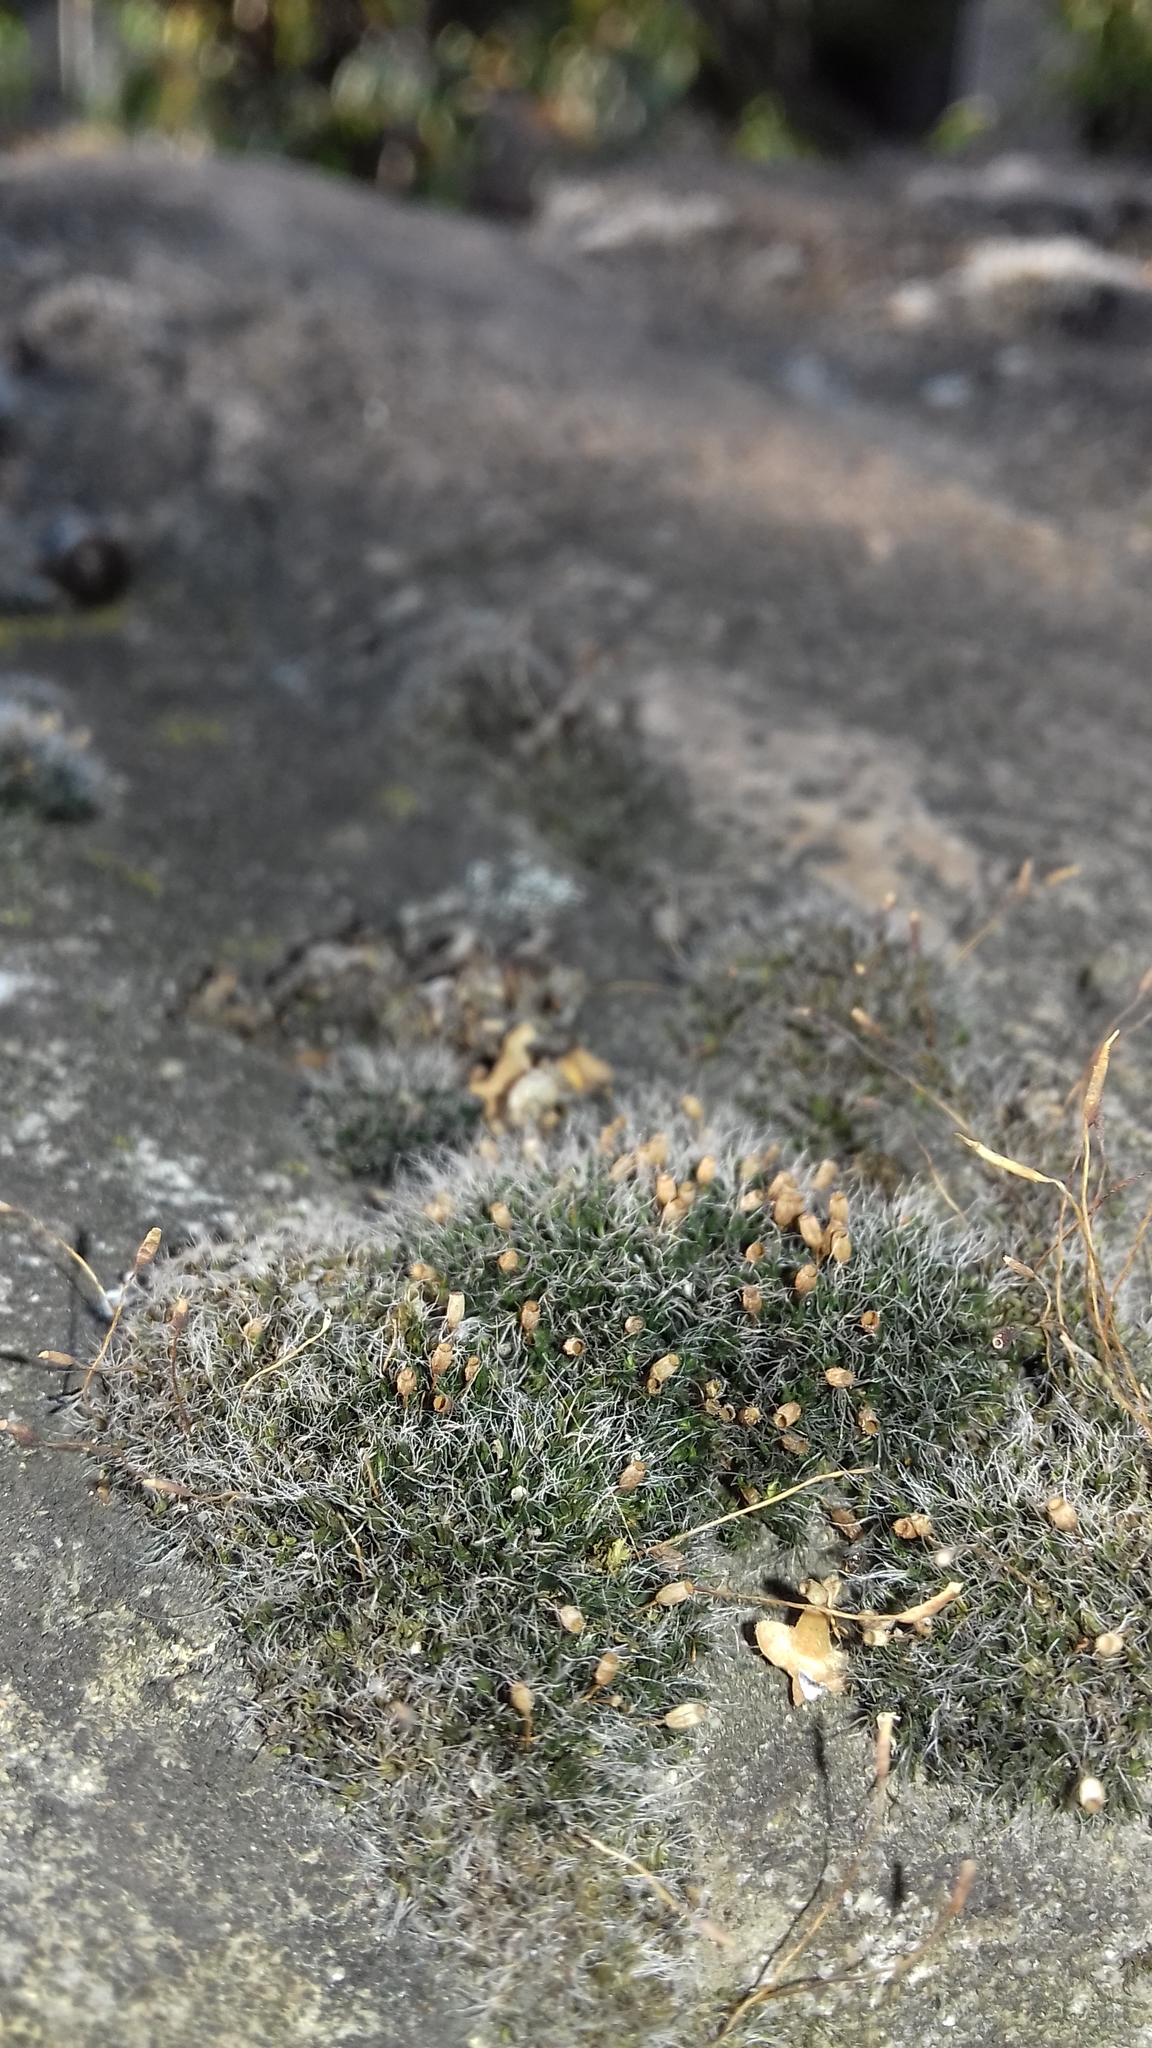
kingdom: Plantae
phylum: Bryophyta
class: Bryopsida
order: Grimmiales
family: Grimmiaceae
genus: Grimmia
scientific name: Grimmia pulvinata
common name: Grey-cushioned grimmia
